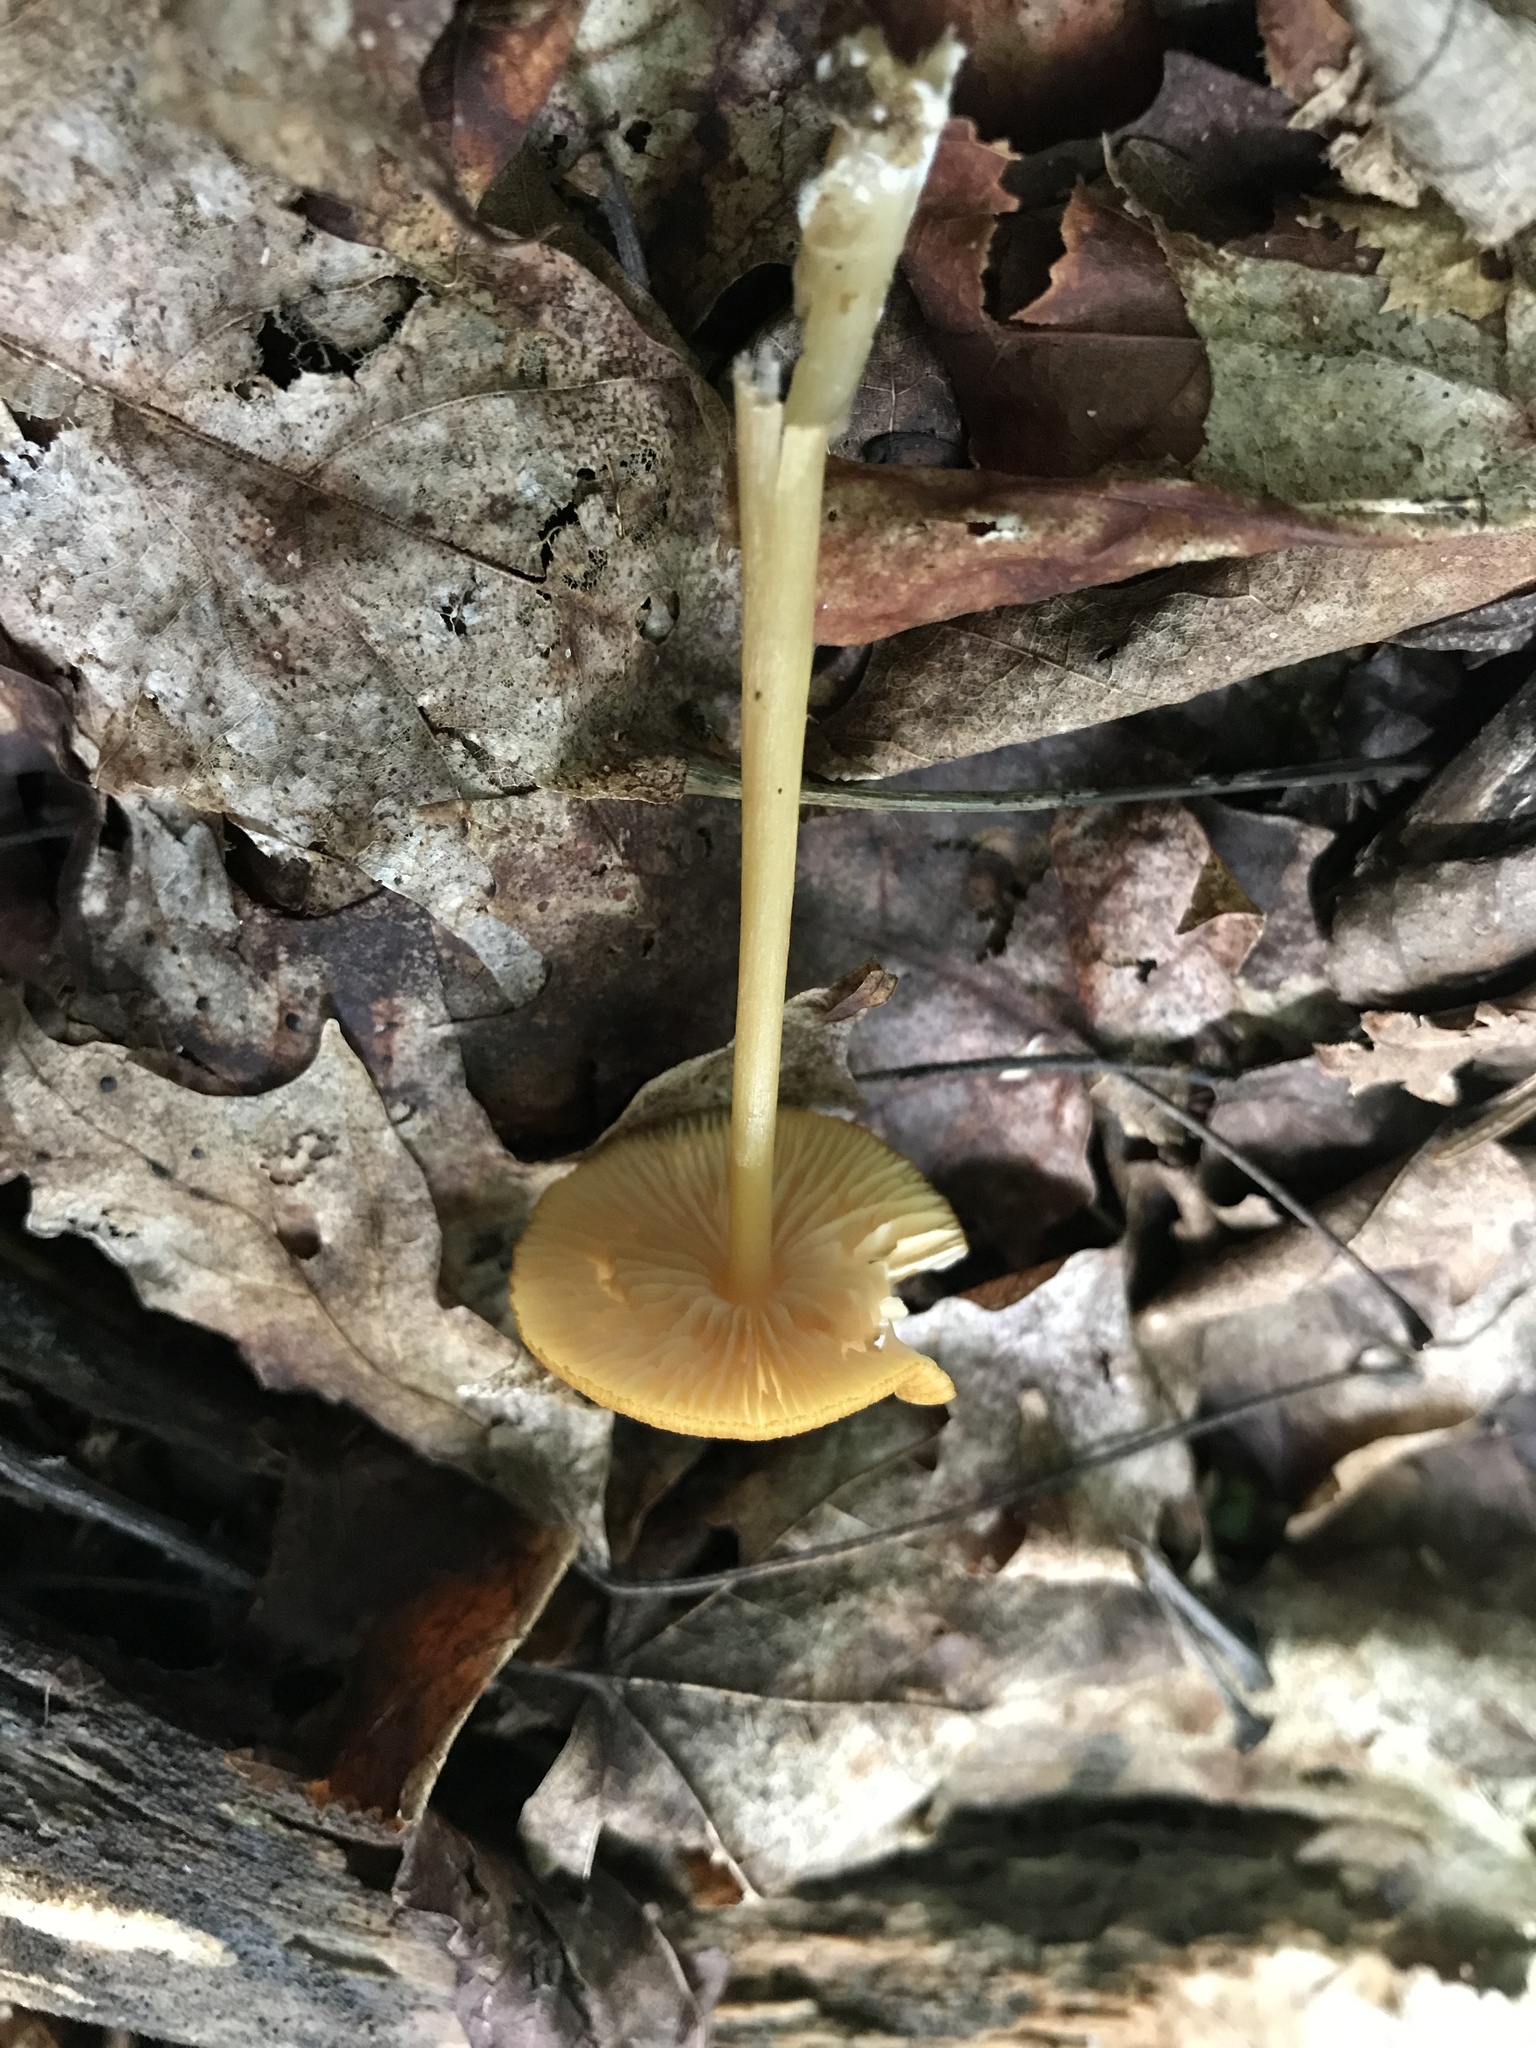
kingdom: Fungi
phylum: Basidiomycota
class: Agaricomycetes
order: Agaricales
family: Entolomataceae
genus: Entoloma
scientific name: Entoloma formosum
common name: Pretty pinkgill
